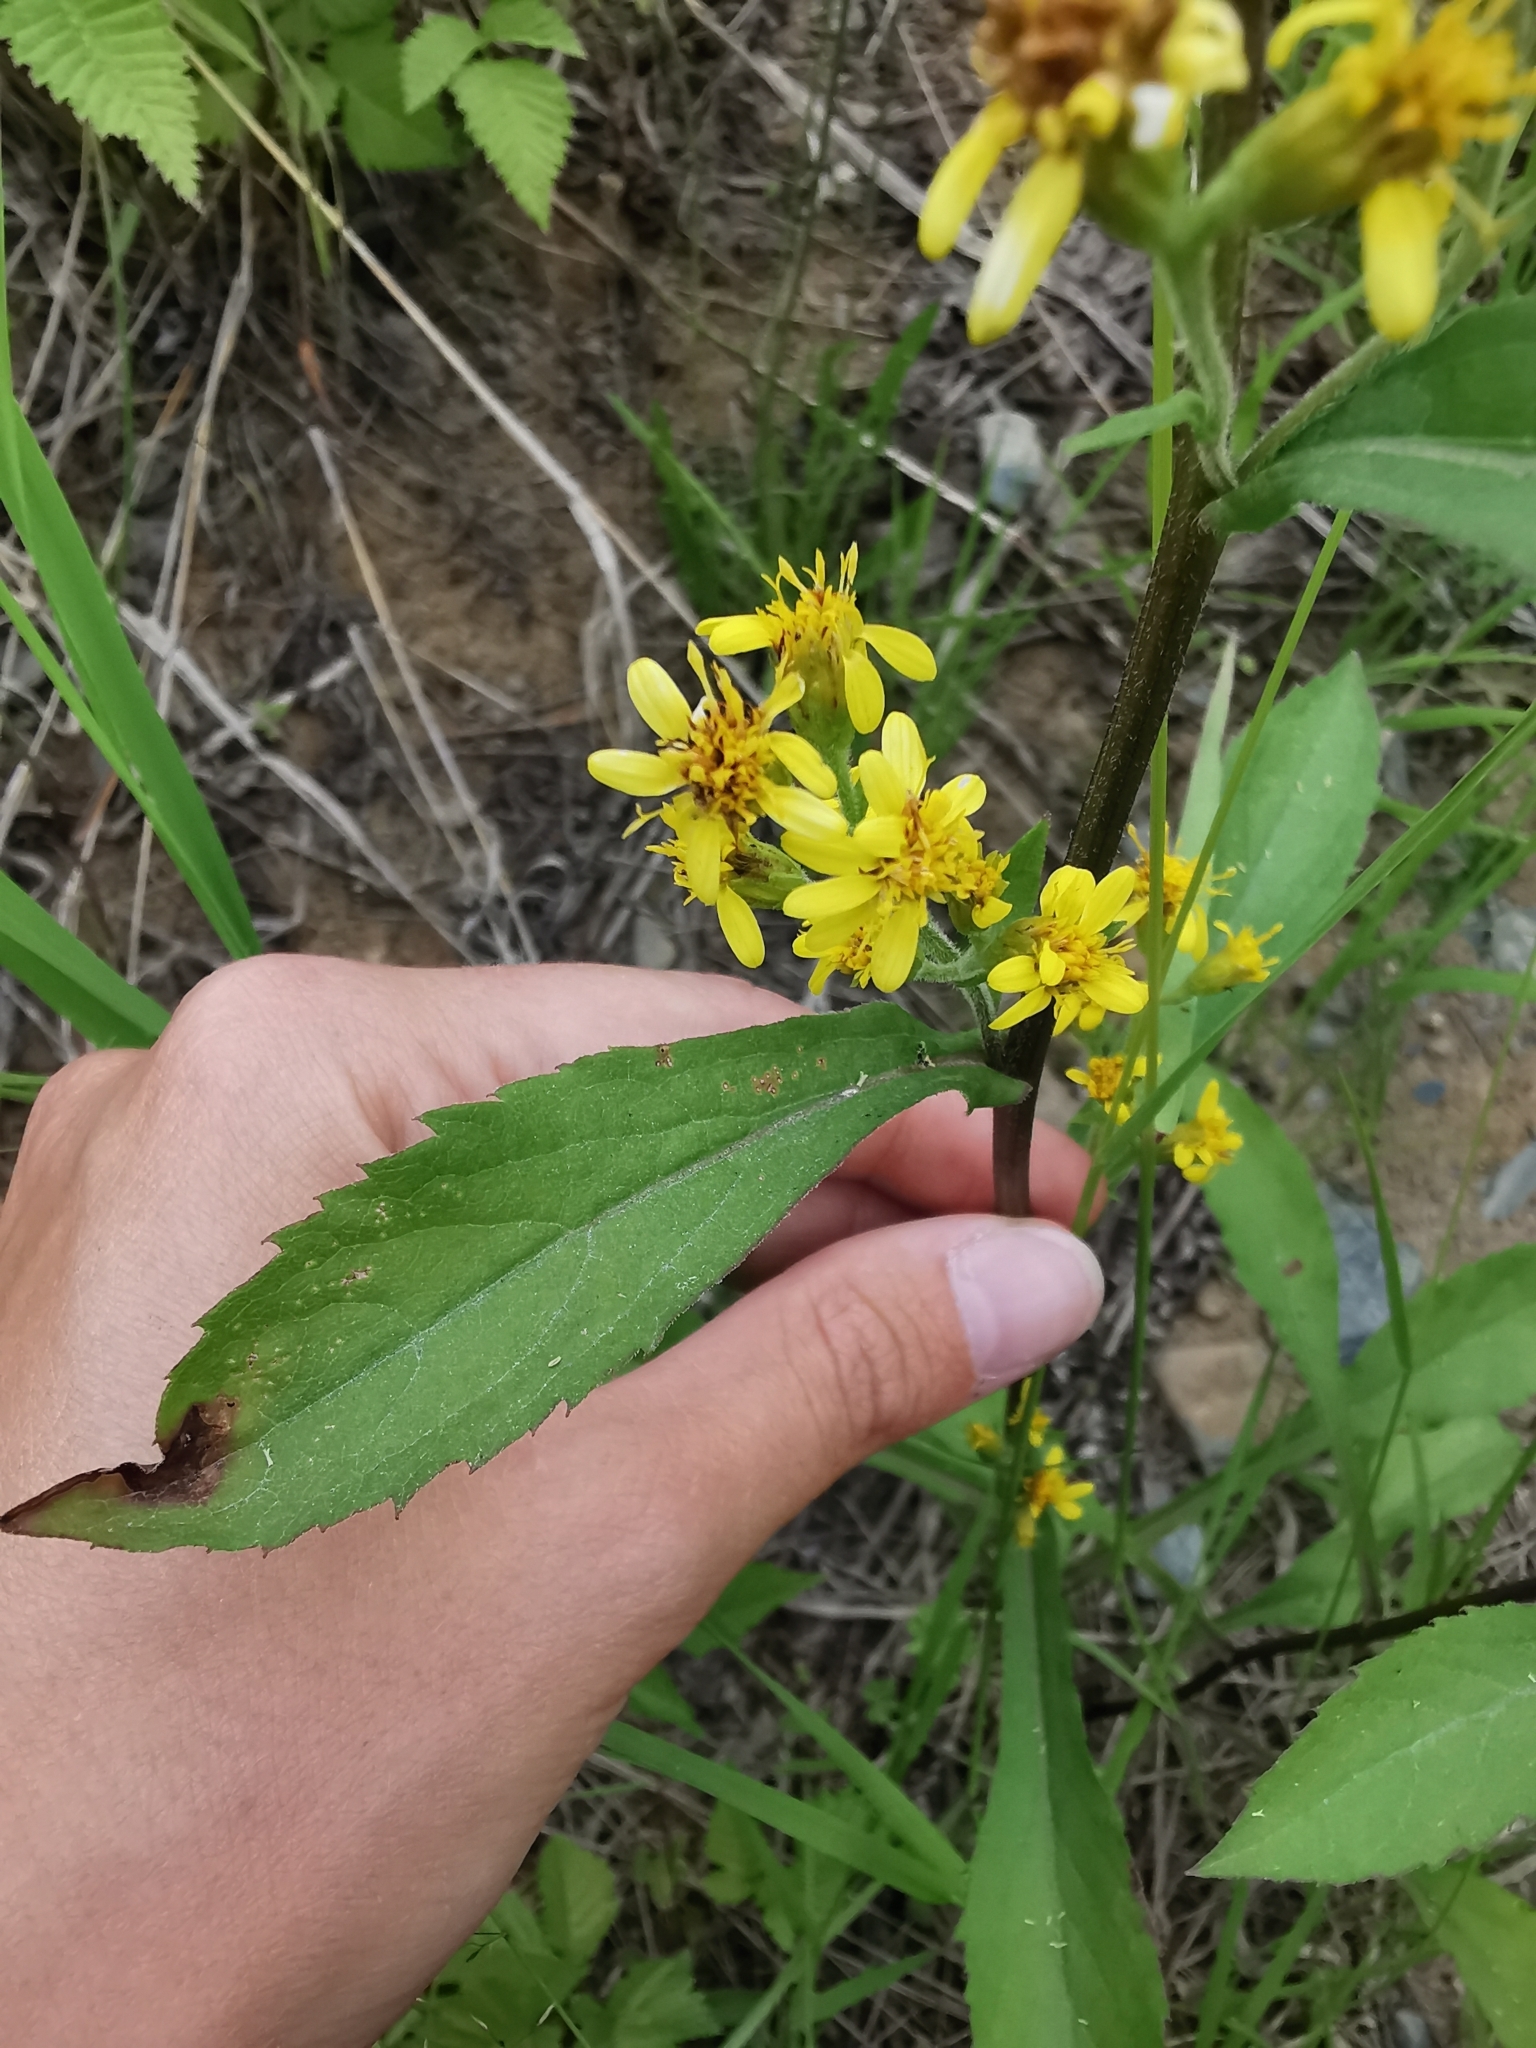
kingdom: Plantae
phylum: Tracheophyta
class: Magnoliopsida
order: Asterales
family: Asteraceae
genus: Solidago
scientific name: Solidago cuprea
